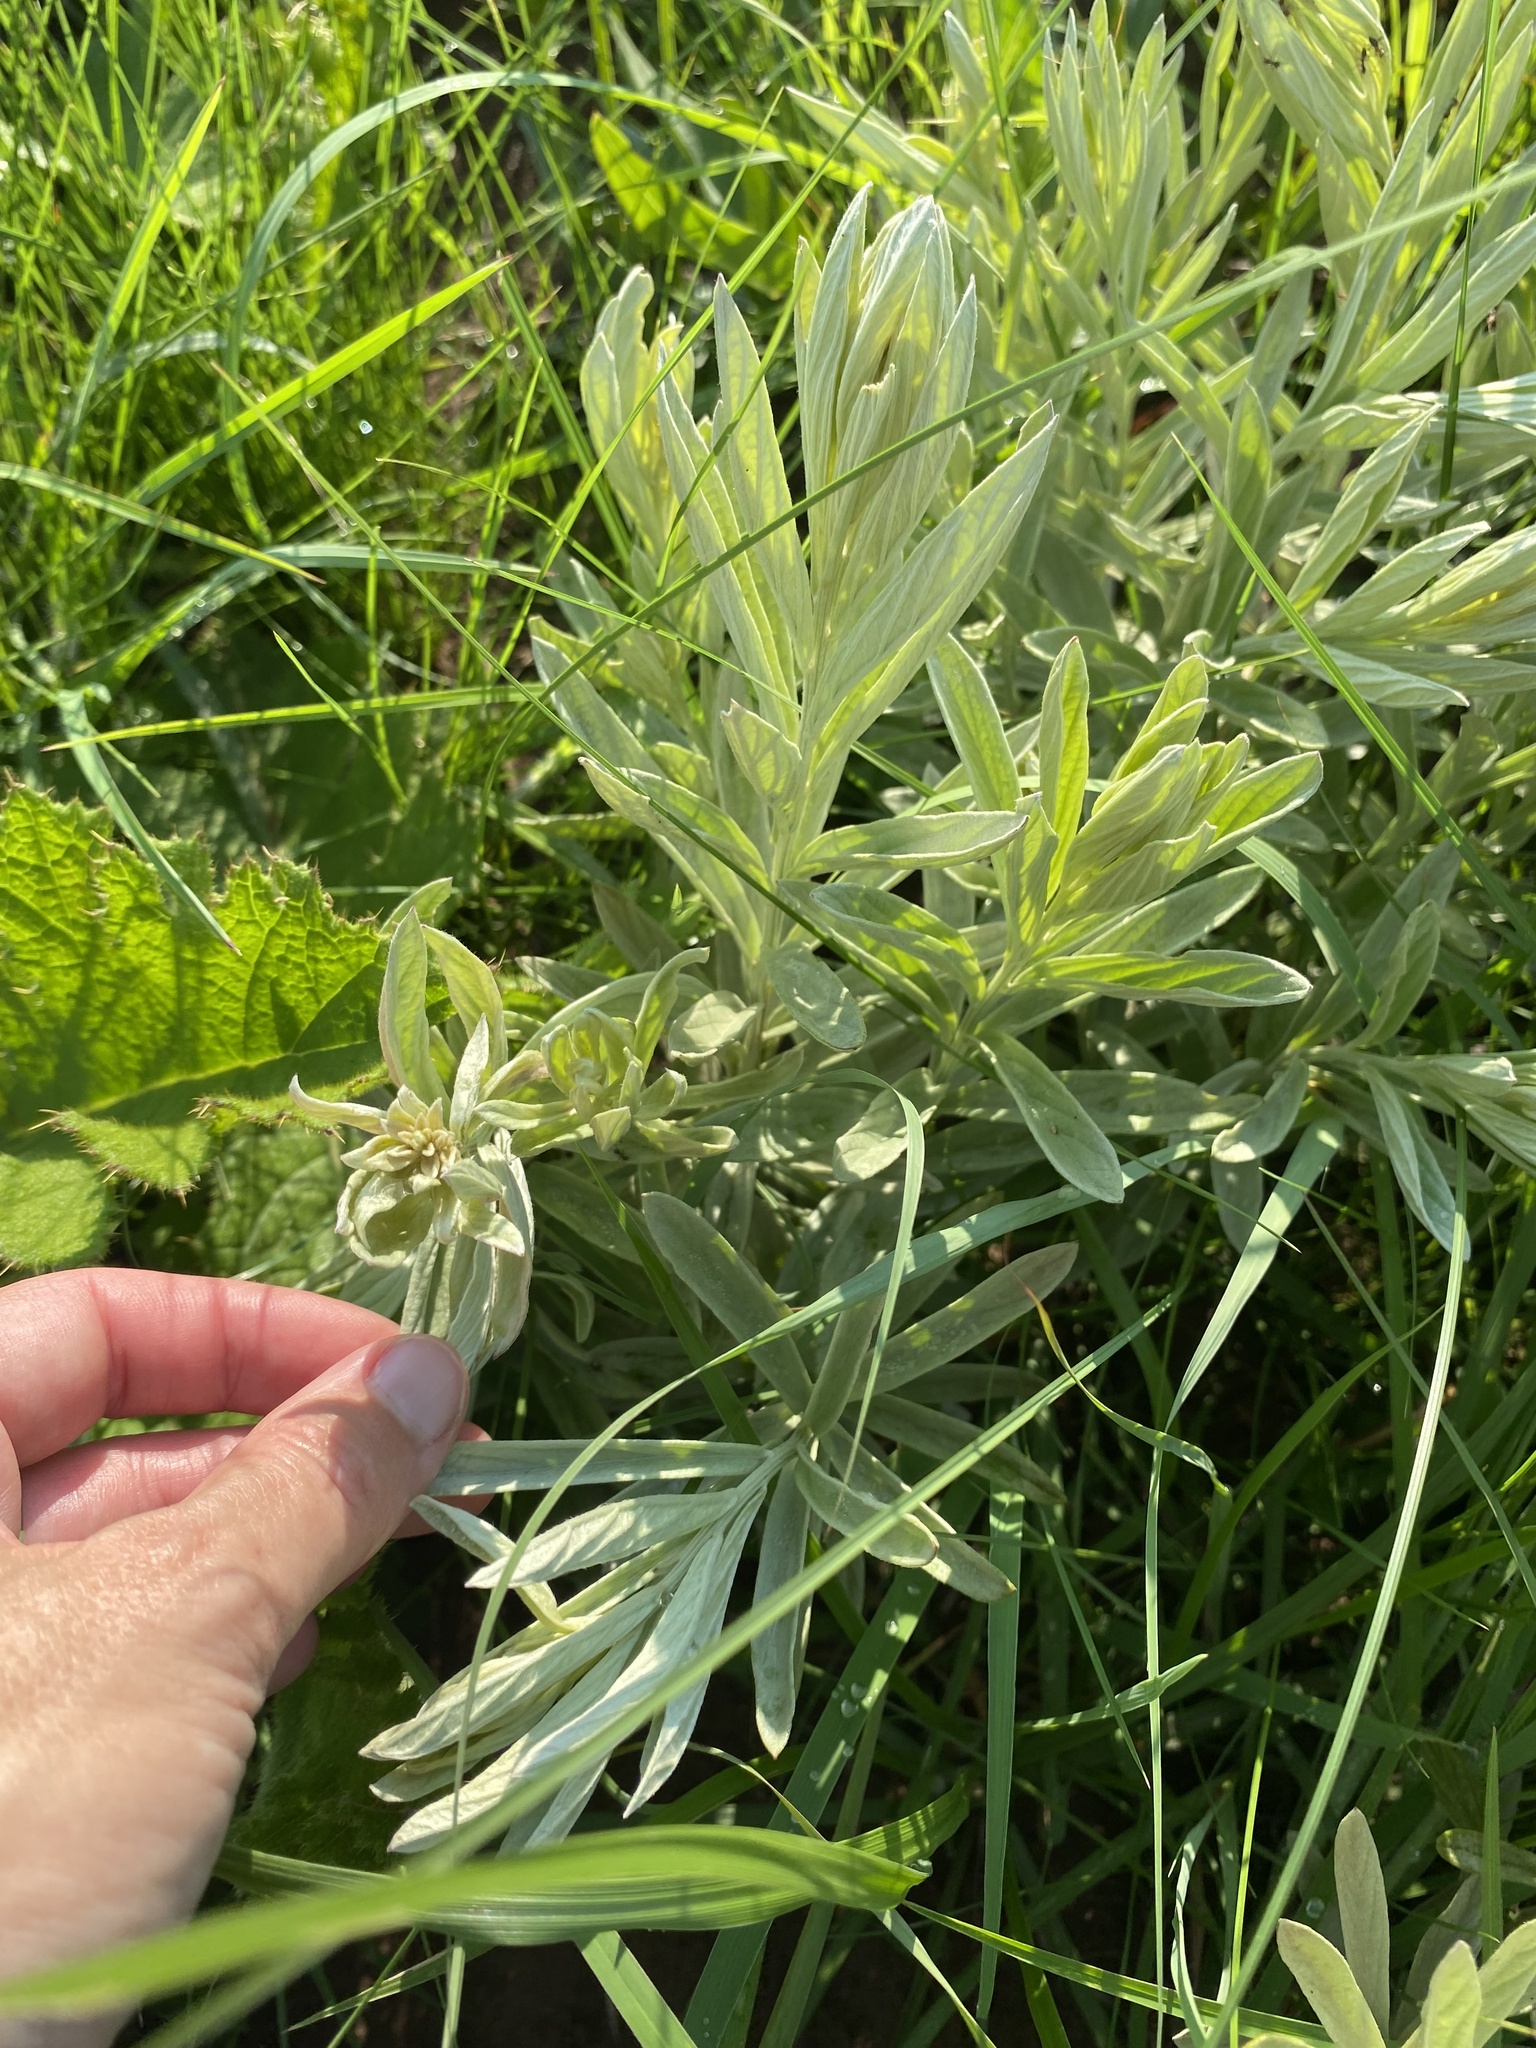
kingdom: Plantae
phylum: Tracheophyta
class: Magnoliopsida
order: Asterales
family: Asteraceae
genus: Hilliardiella
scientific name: Hilliardiella aristata
